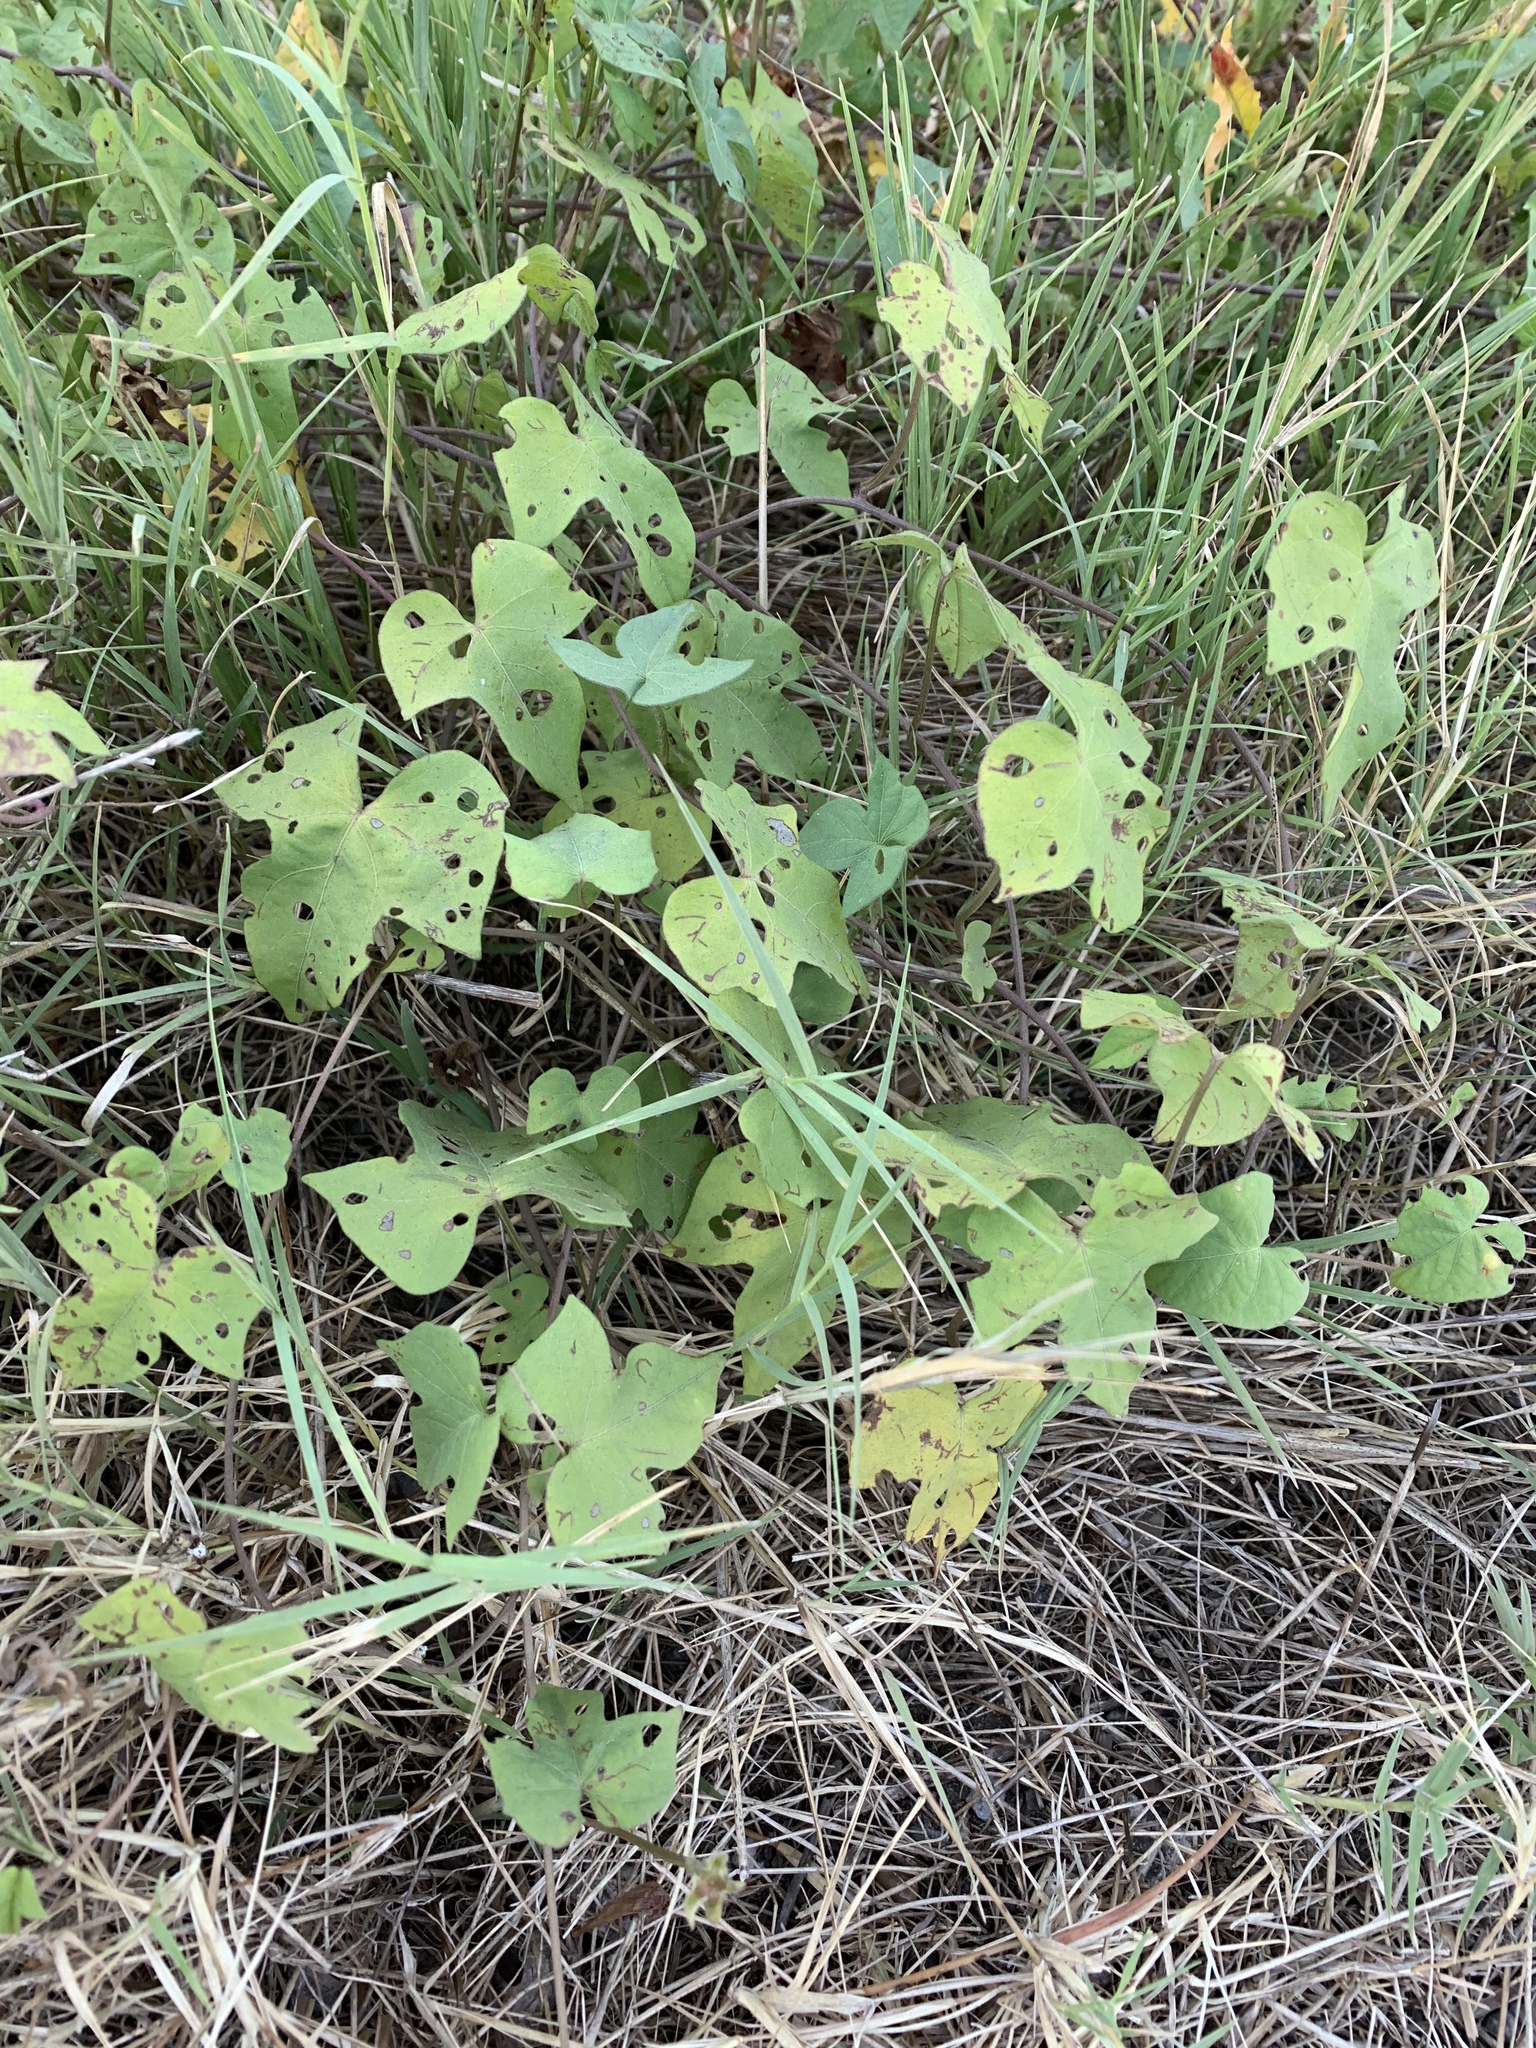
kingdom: Plantae
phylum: Tracheophyta
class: Magnoliopsida
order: Solanales
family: Convolvulaceae
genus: Ipomoea
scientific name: Ipomoea cordatotriloba
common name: Cotton morning glory
